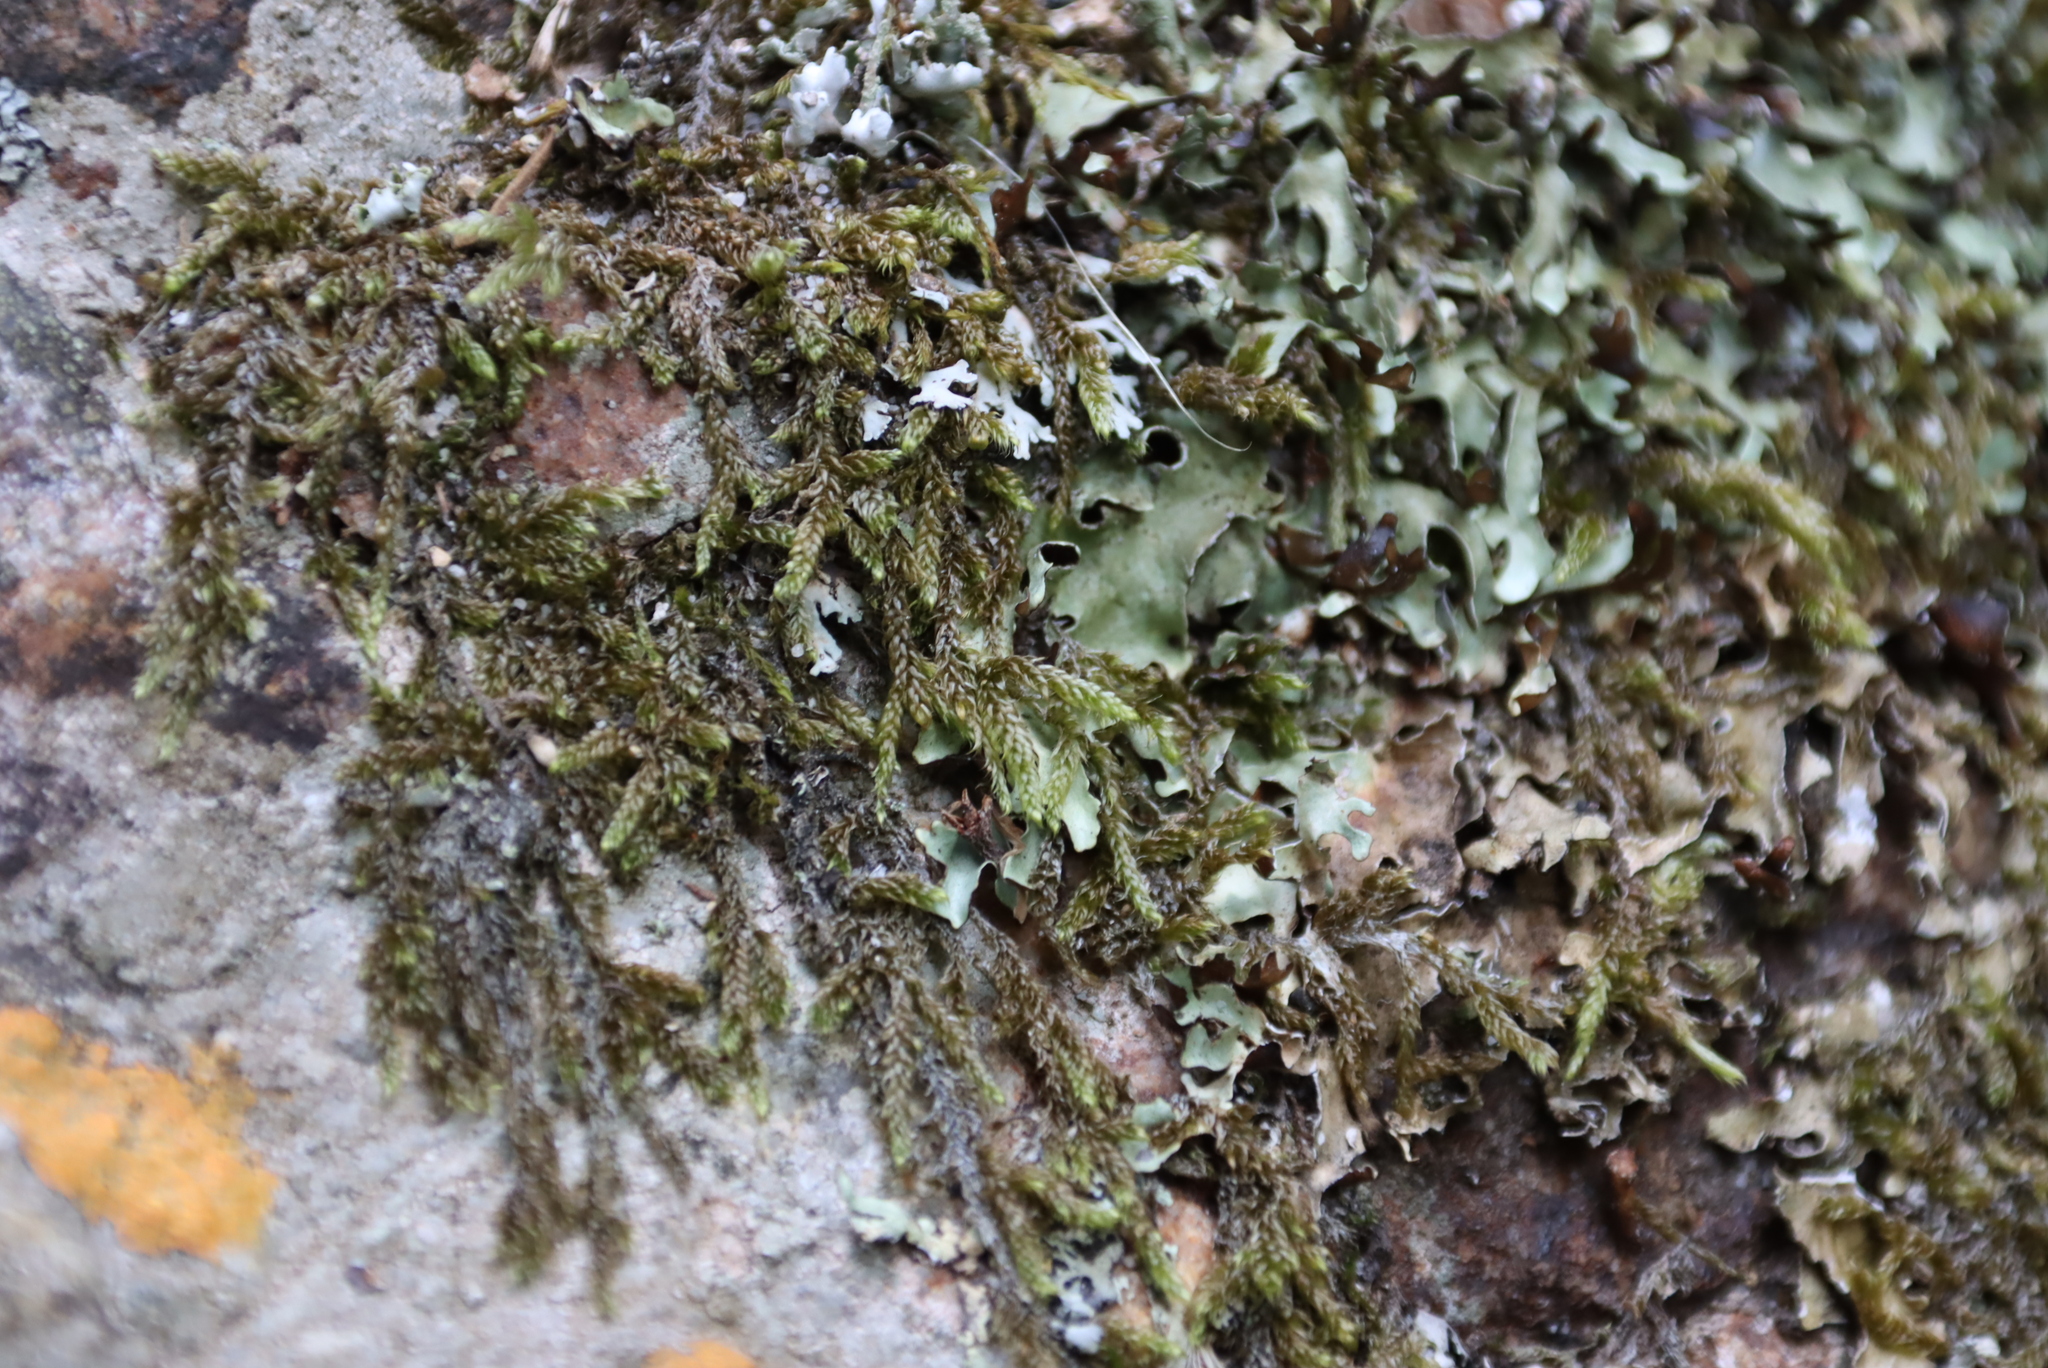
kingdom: Plantae
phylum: Bryophyta
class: Bryopsida
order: Hypnales
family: Hypnaceae
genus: Hypnum
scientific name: Hypnum cupressiforme
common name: Cypress-leaved plait-moss
